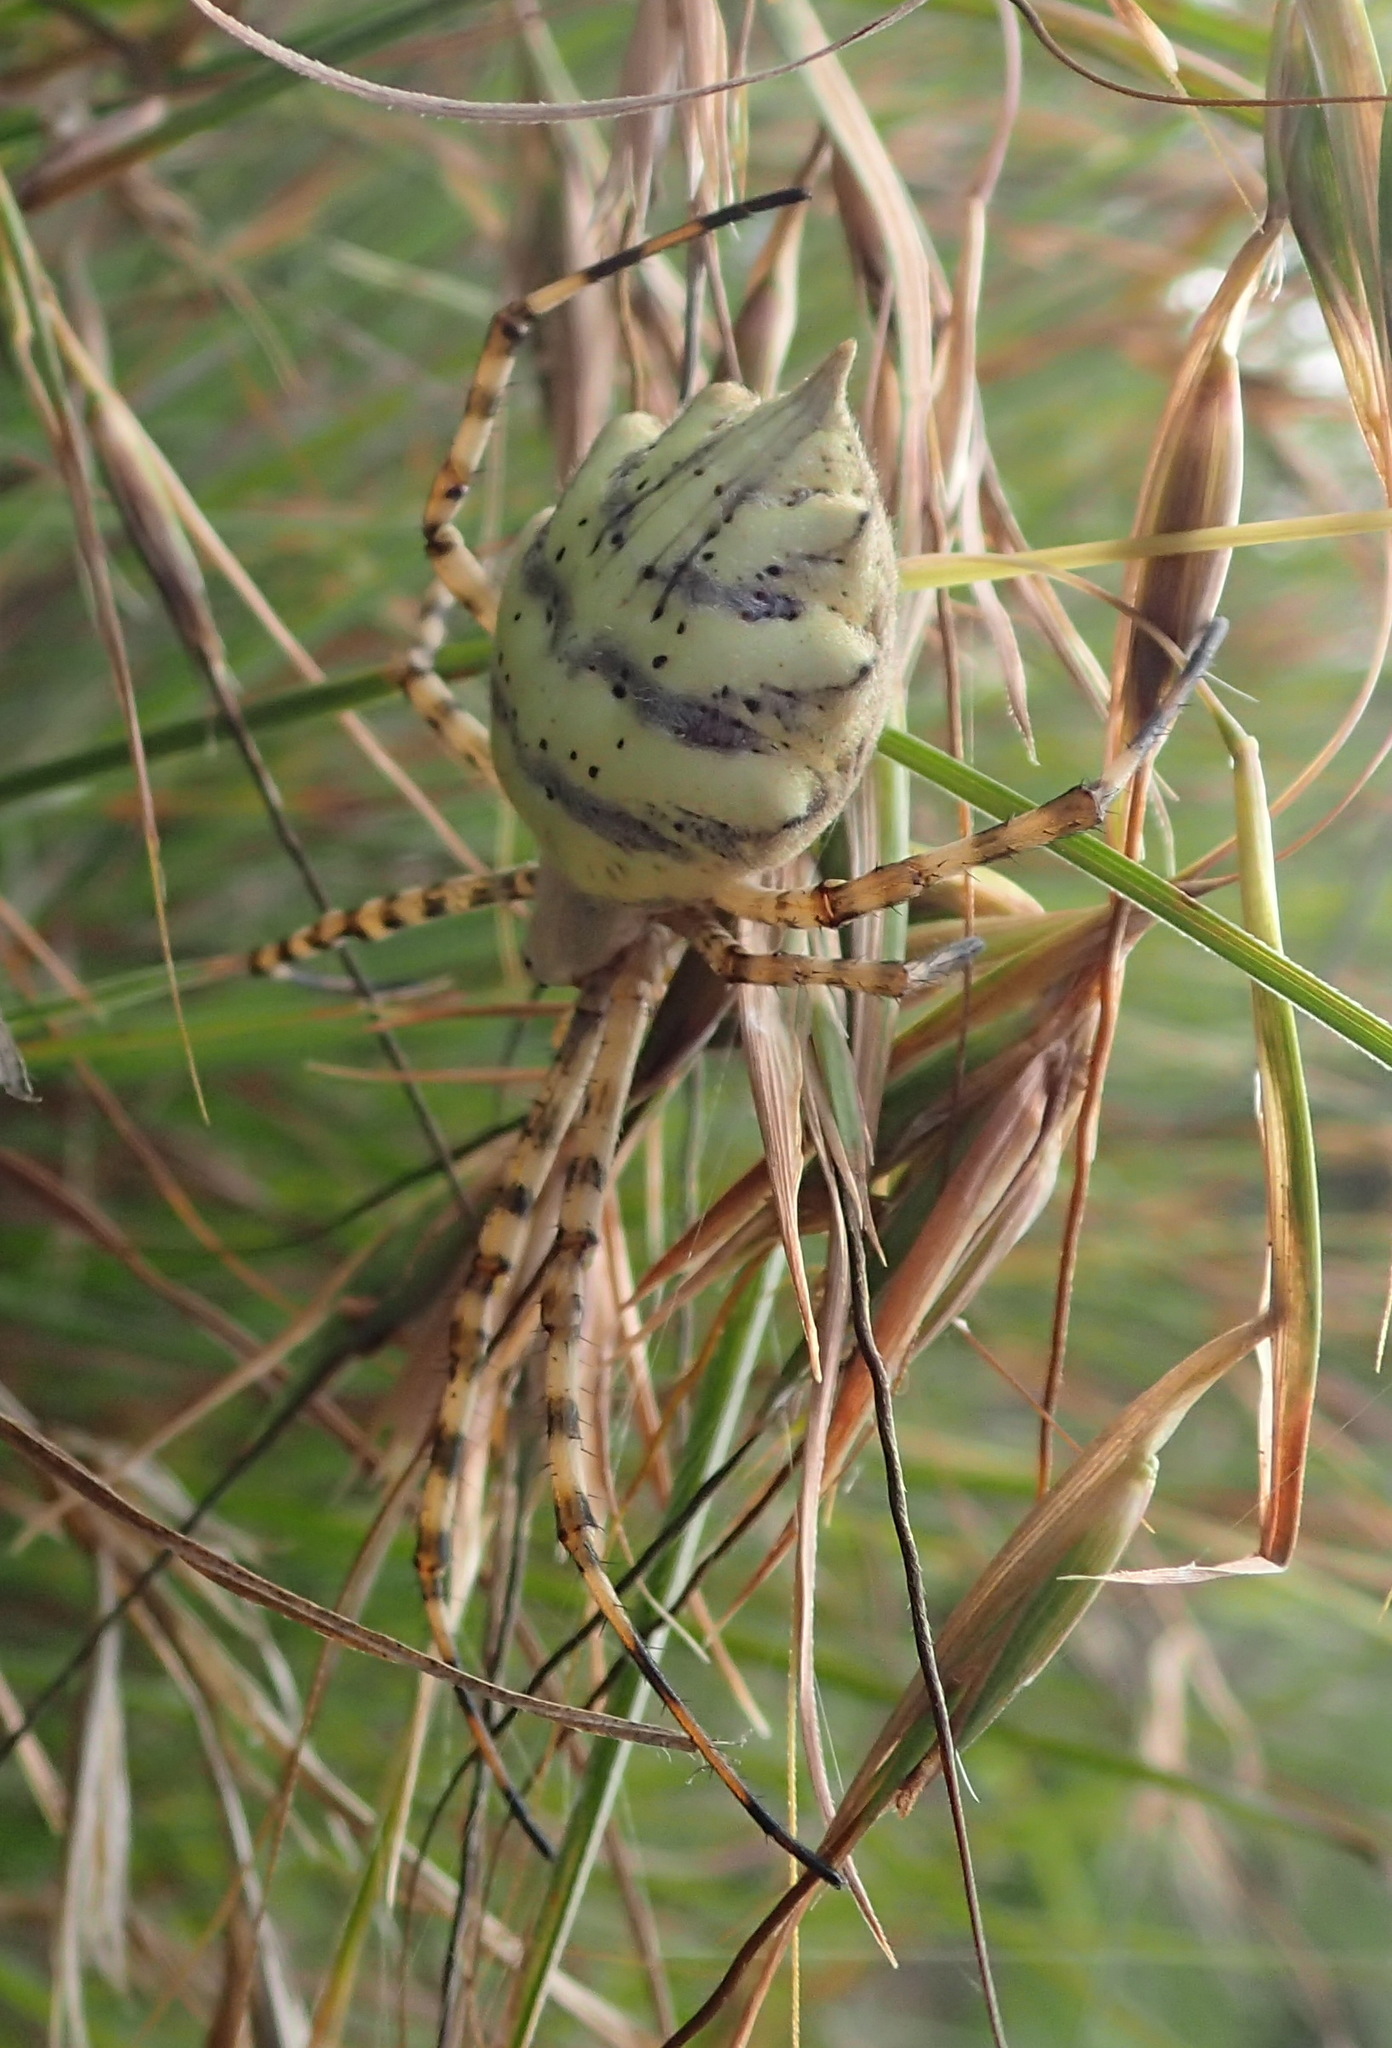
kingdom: Animalia
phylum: Arthropoda
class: Arachnida
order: Araneae
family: Araneidae
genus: Argiope
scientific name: Argiope australis
